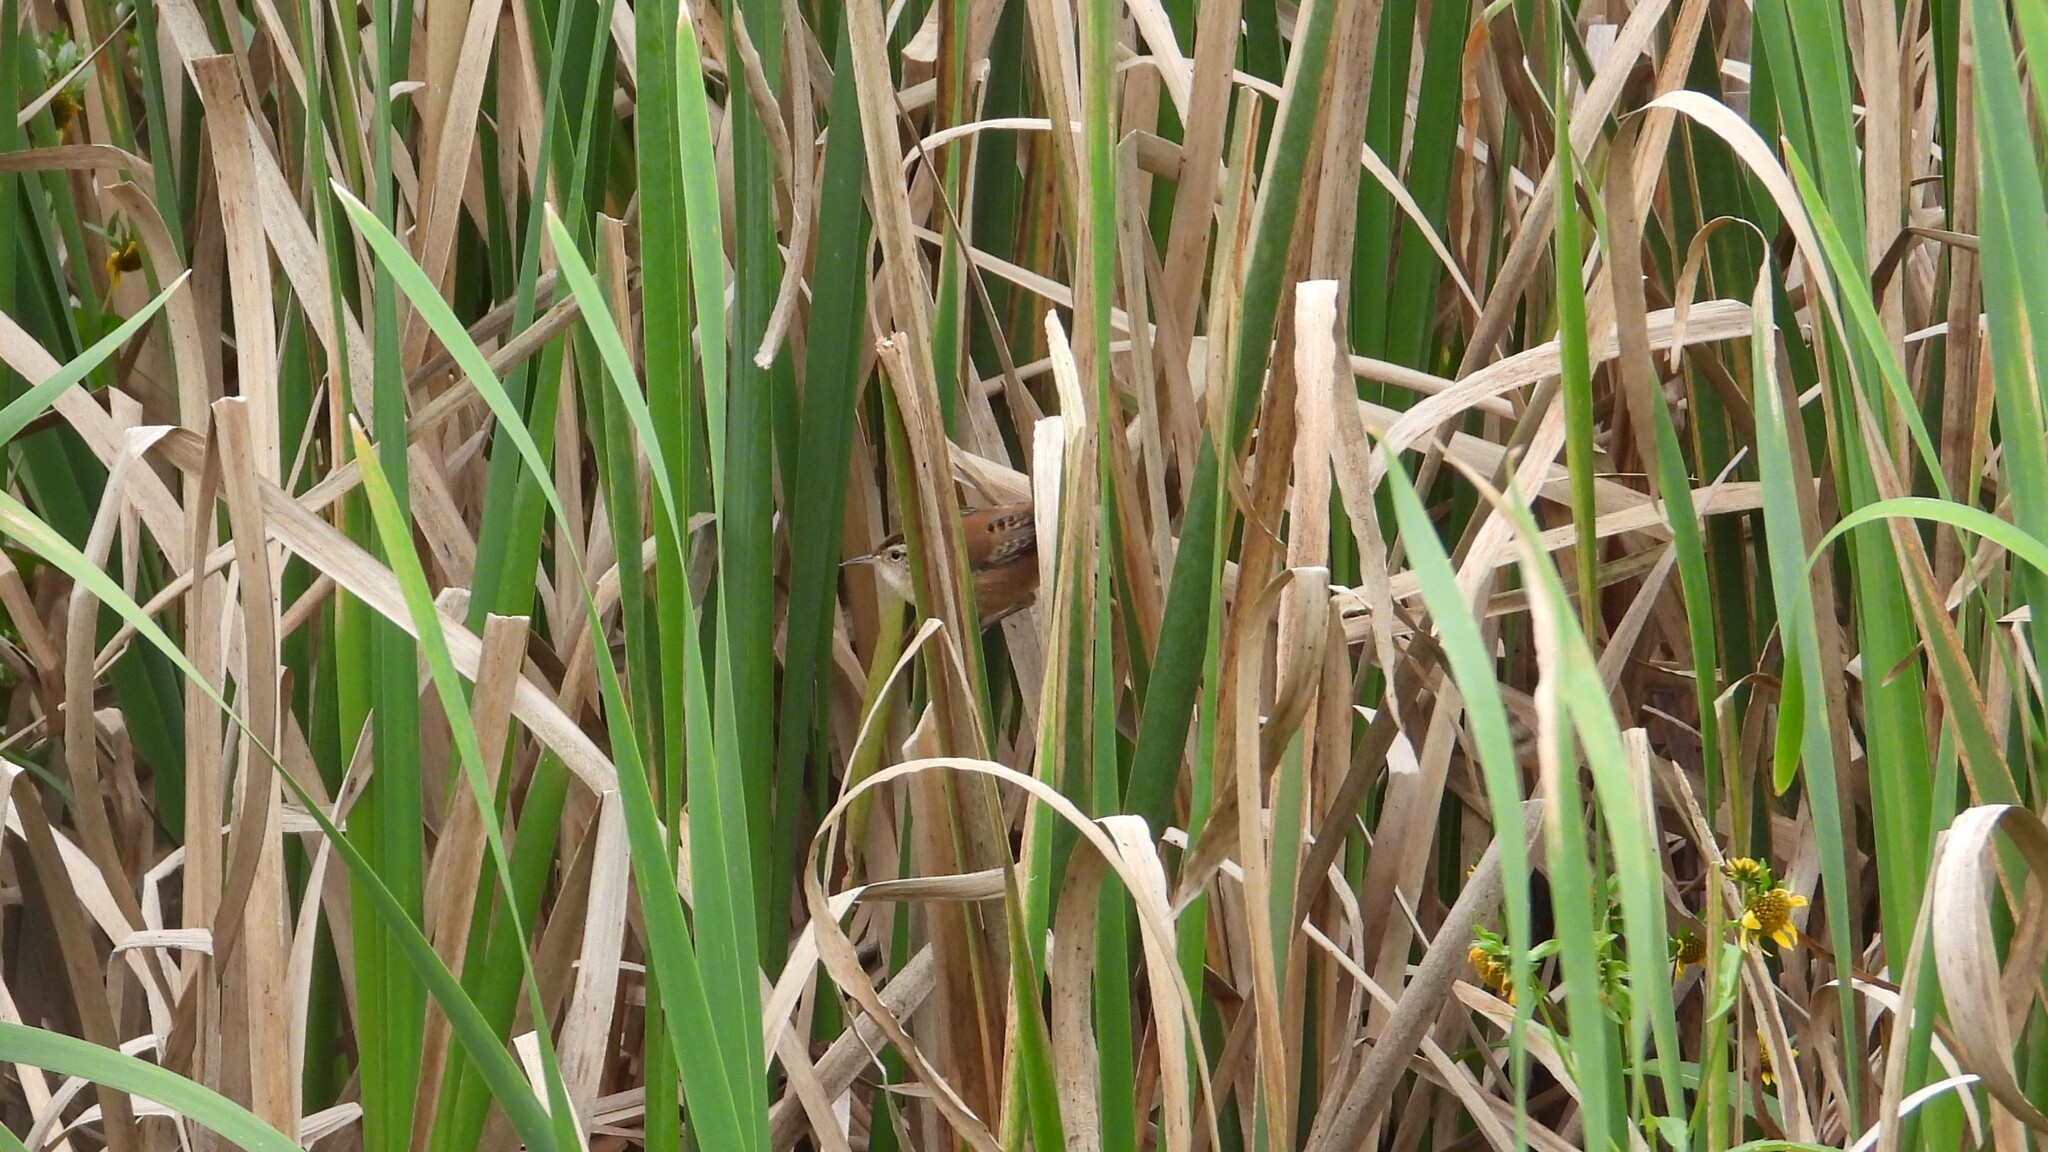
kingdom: Animalia
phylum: Chordata
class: Aves
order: Passeriformes
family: Troglodytidae
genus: Cistothorus
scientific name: Cistothorus palustris
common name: Marsh wren
